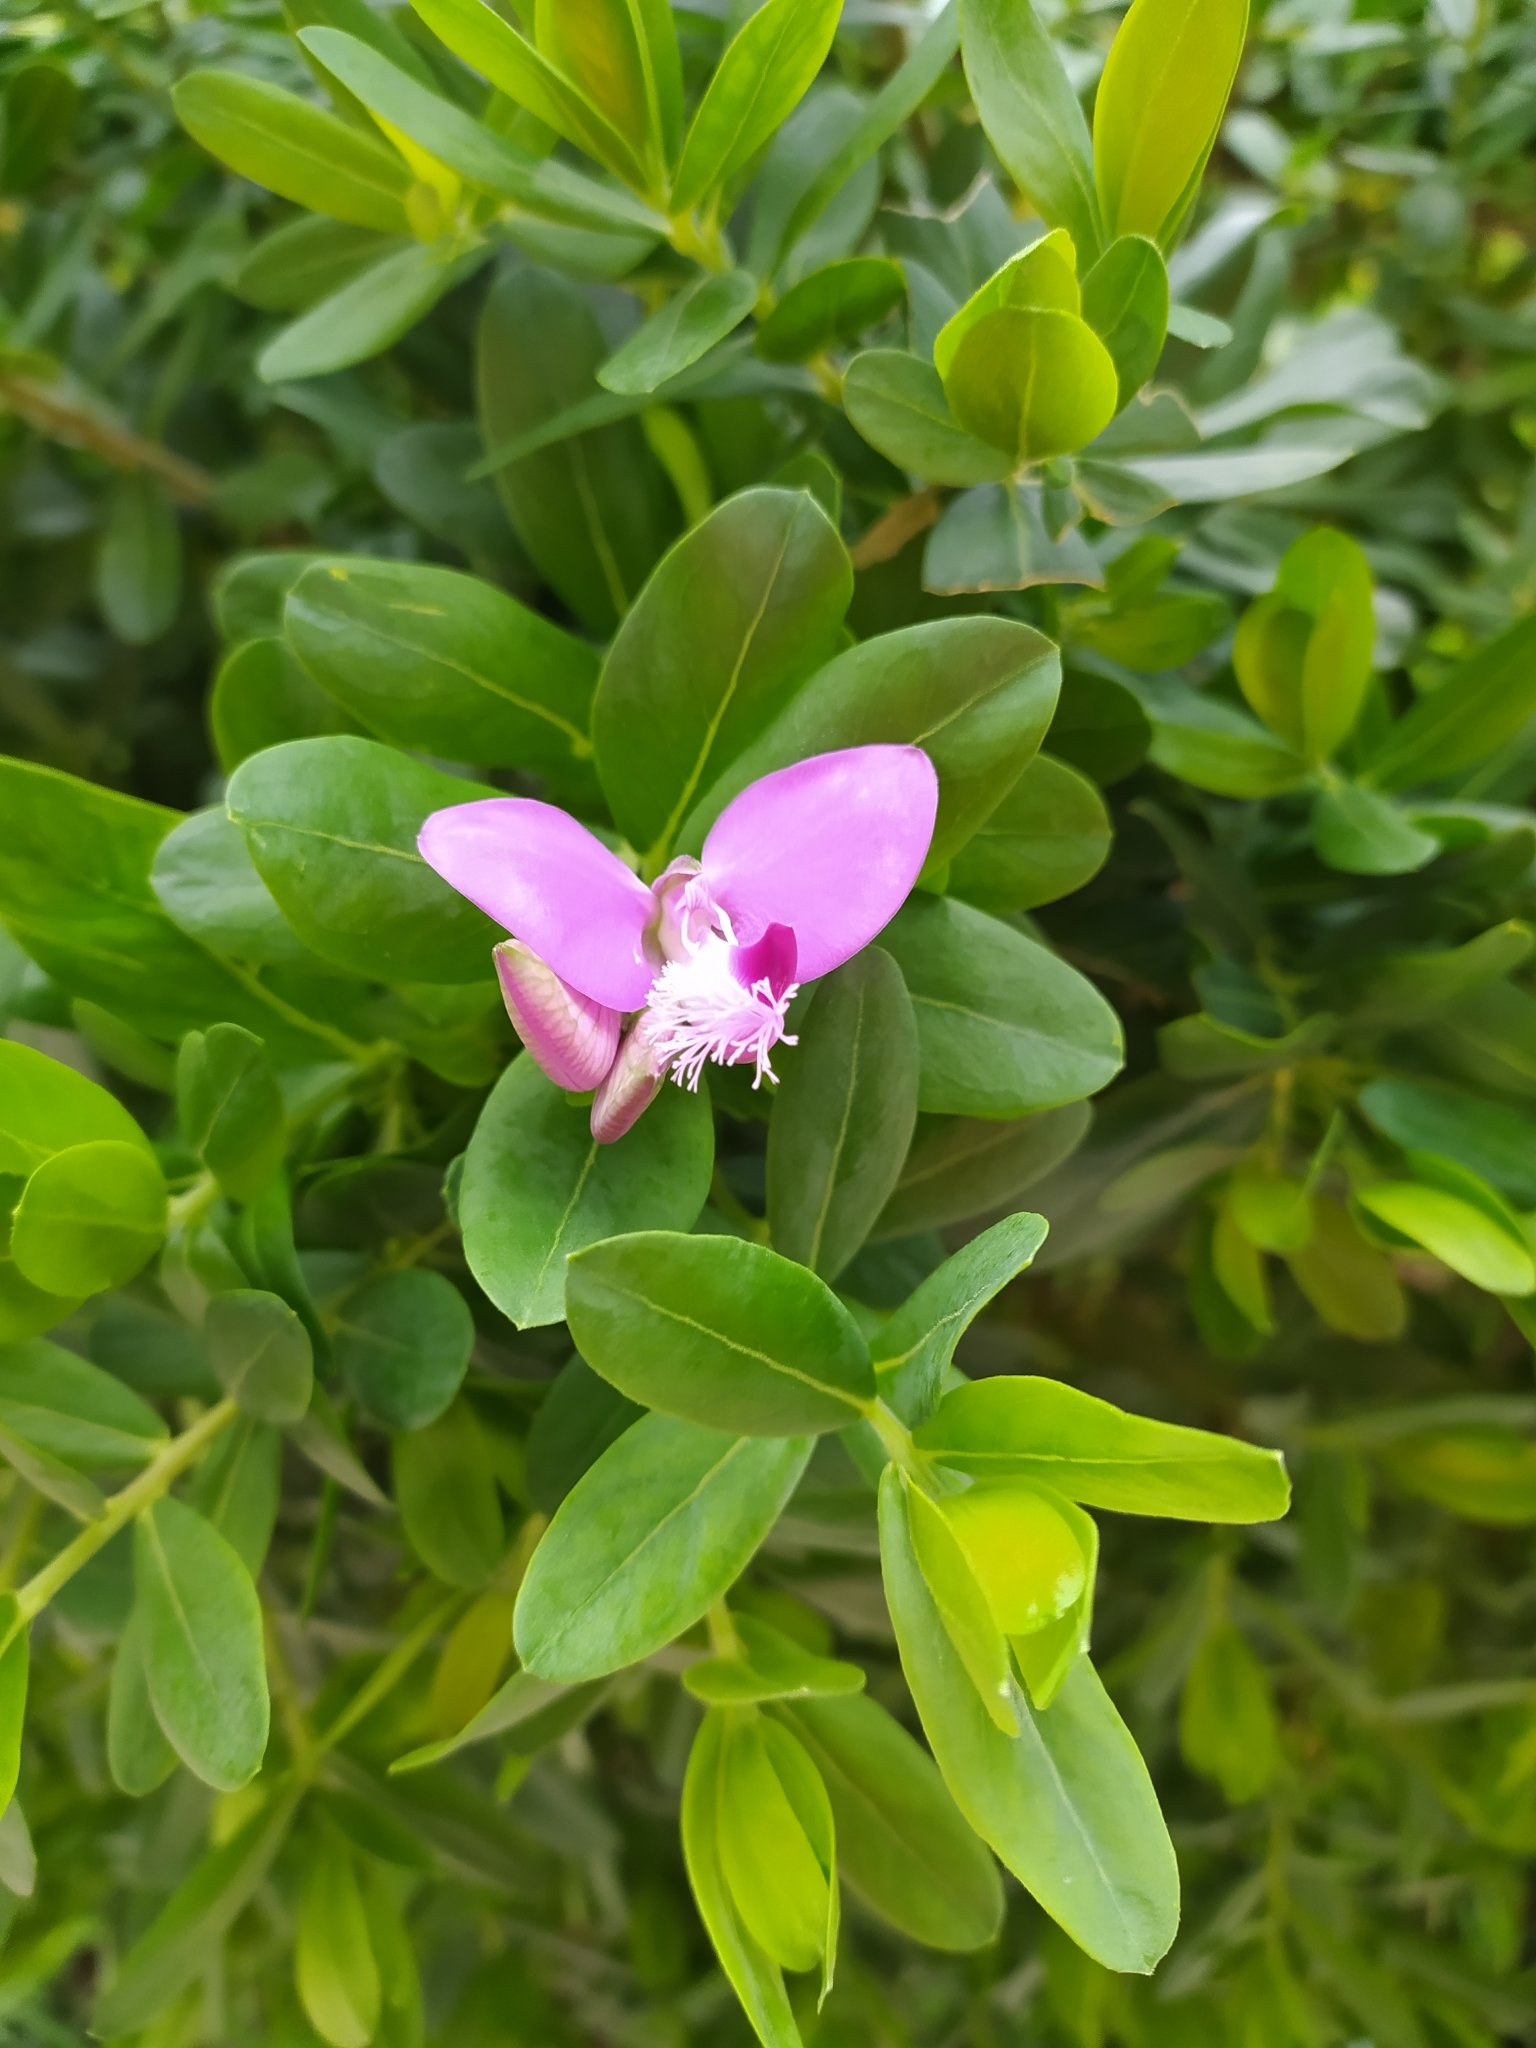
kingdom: Plantae
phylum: Tracheophyta
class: Magnoliopsida
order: Fabales
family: Polygalaceae
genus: Polygala
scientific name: Polygala myrtifolia
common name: Myrtle-leaf milkwort
